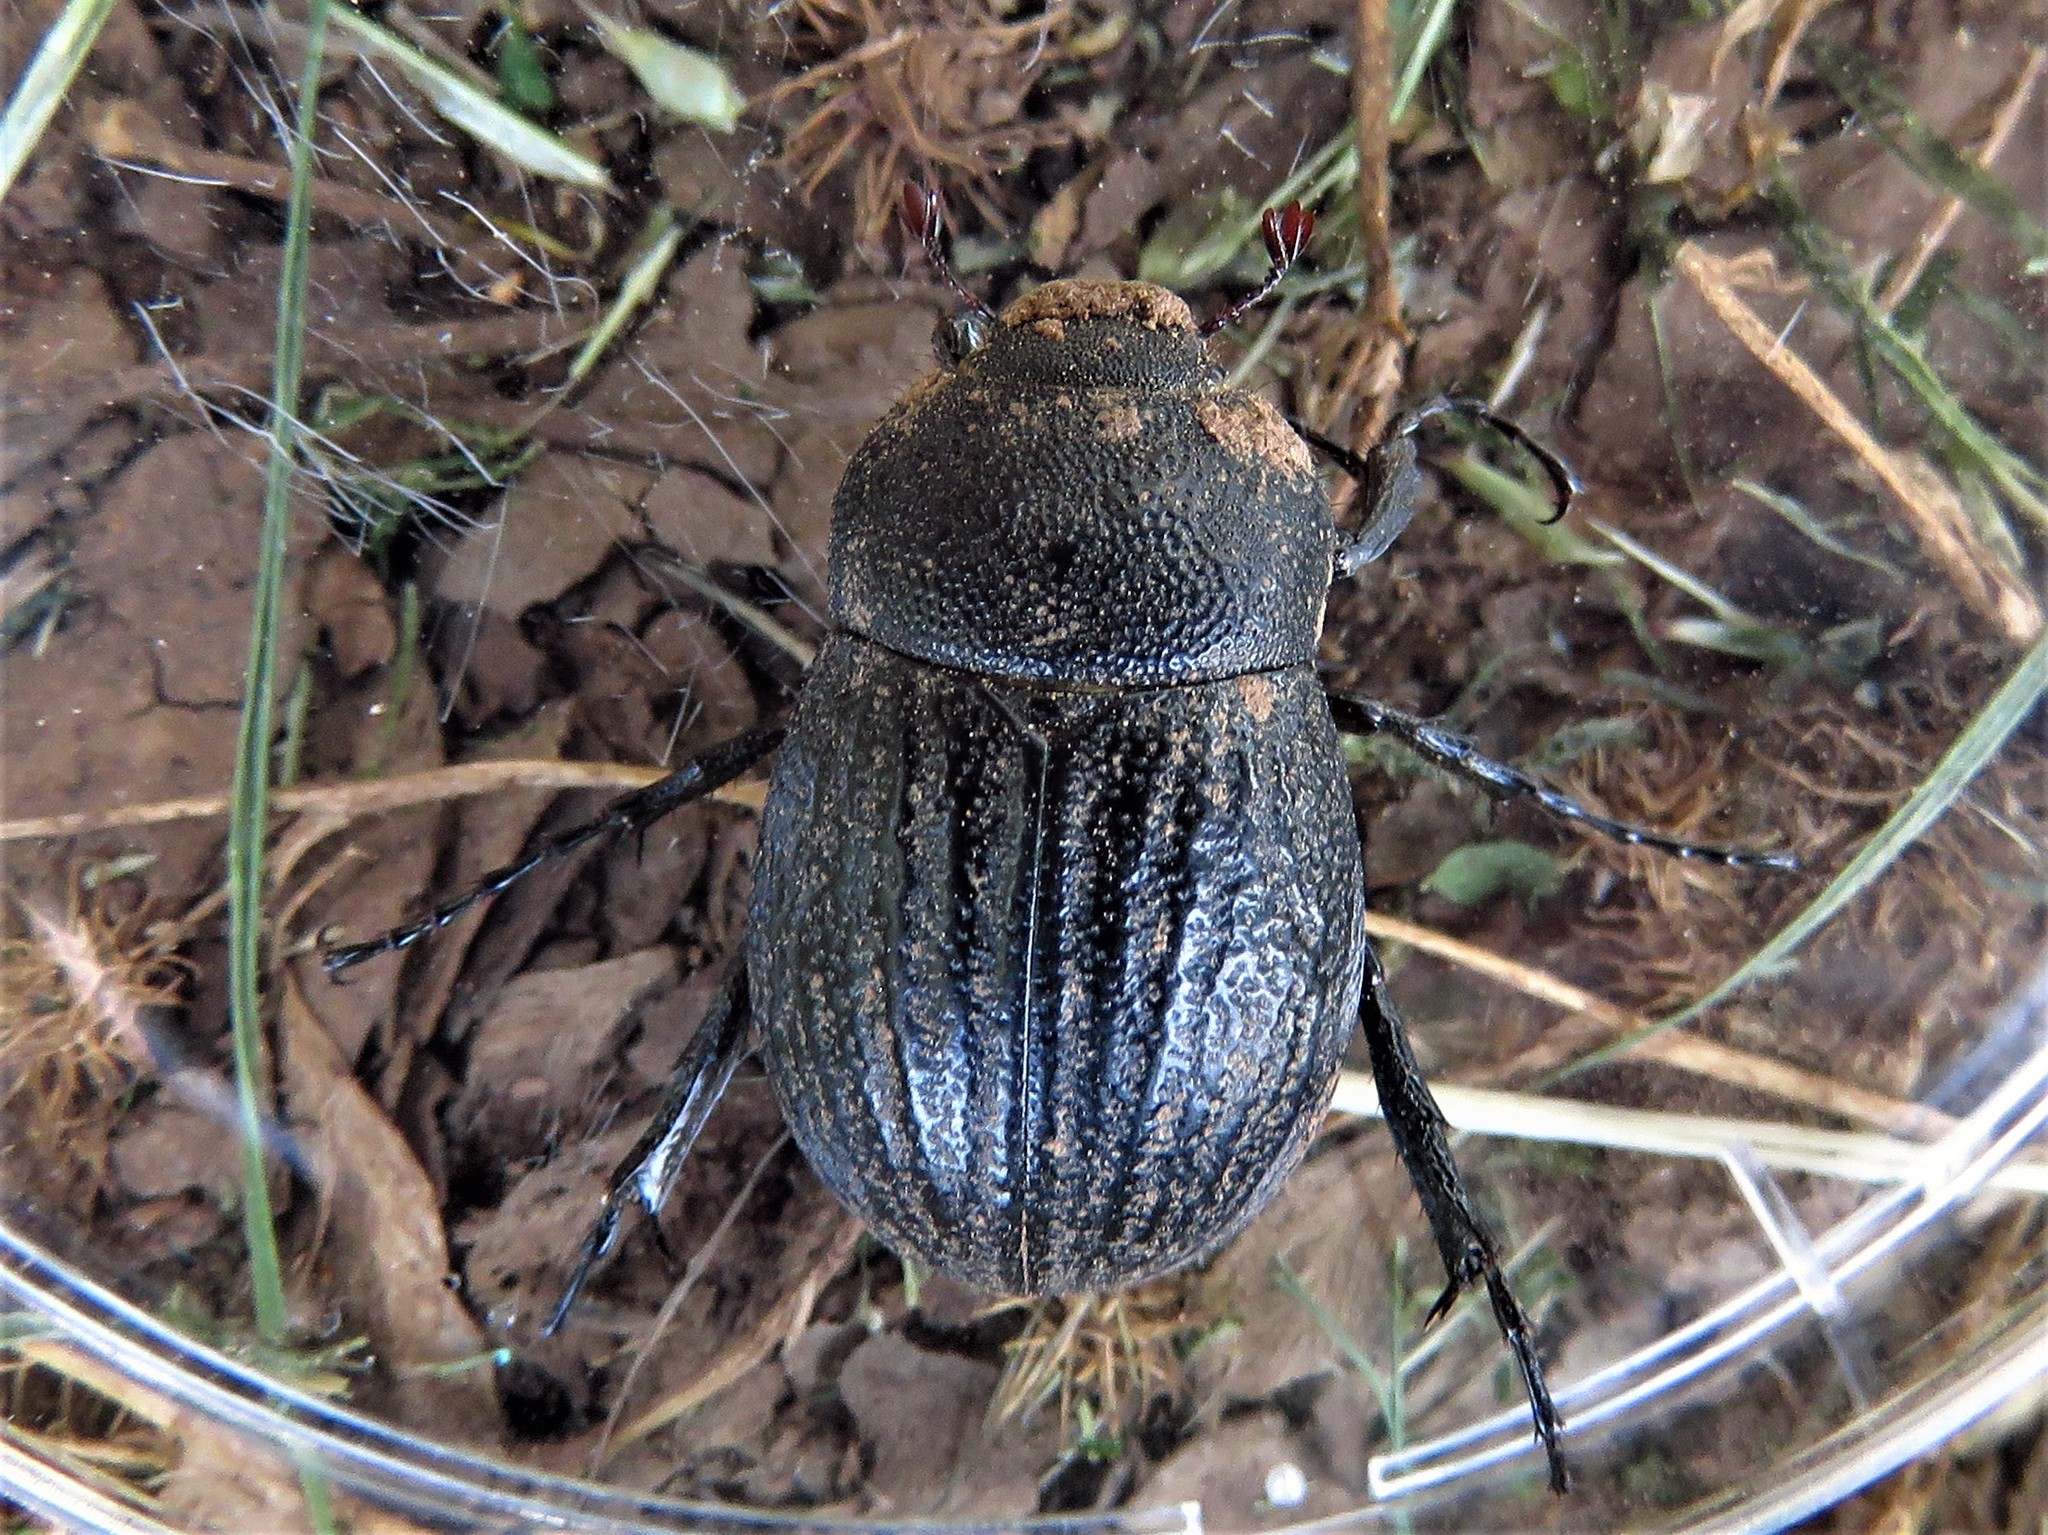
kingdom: Animalia
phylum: Arthropoda
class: Insecta
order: Coleoptera
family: Scarabaeidae
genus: Phyllophaga
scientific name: Phyllophaga cribrosa
